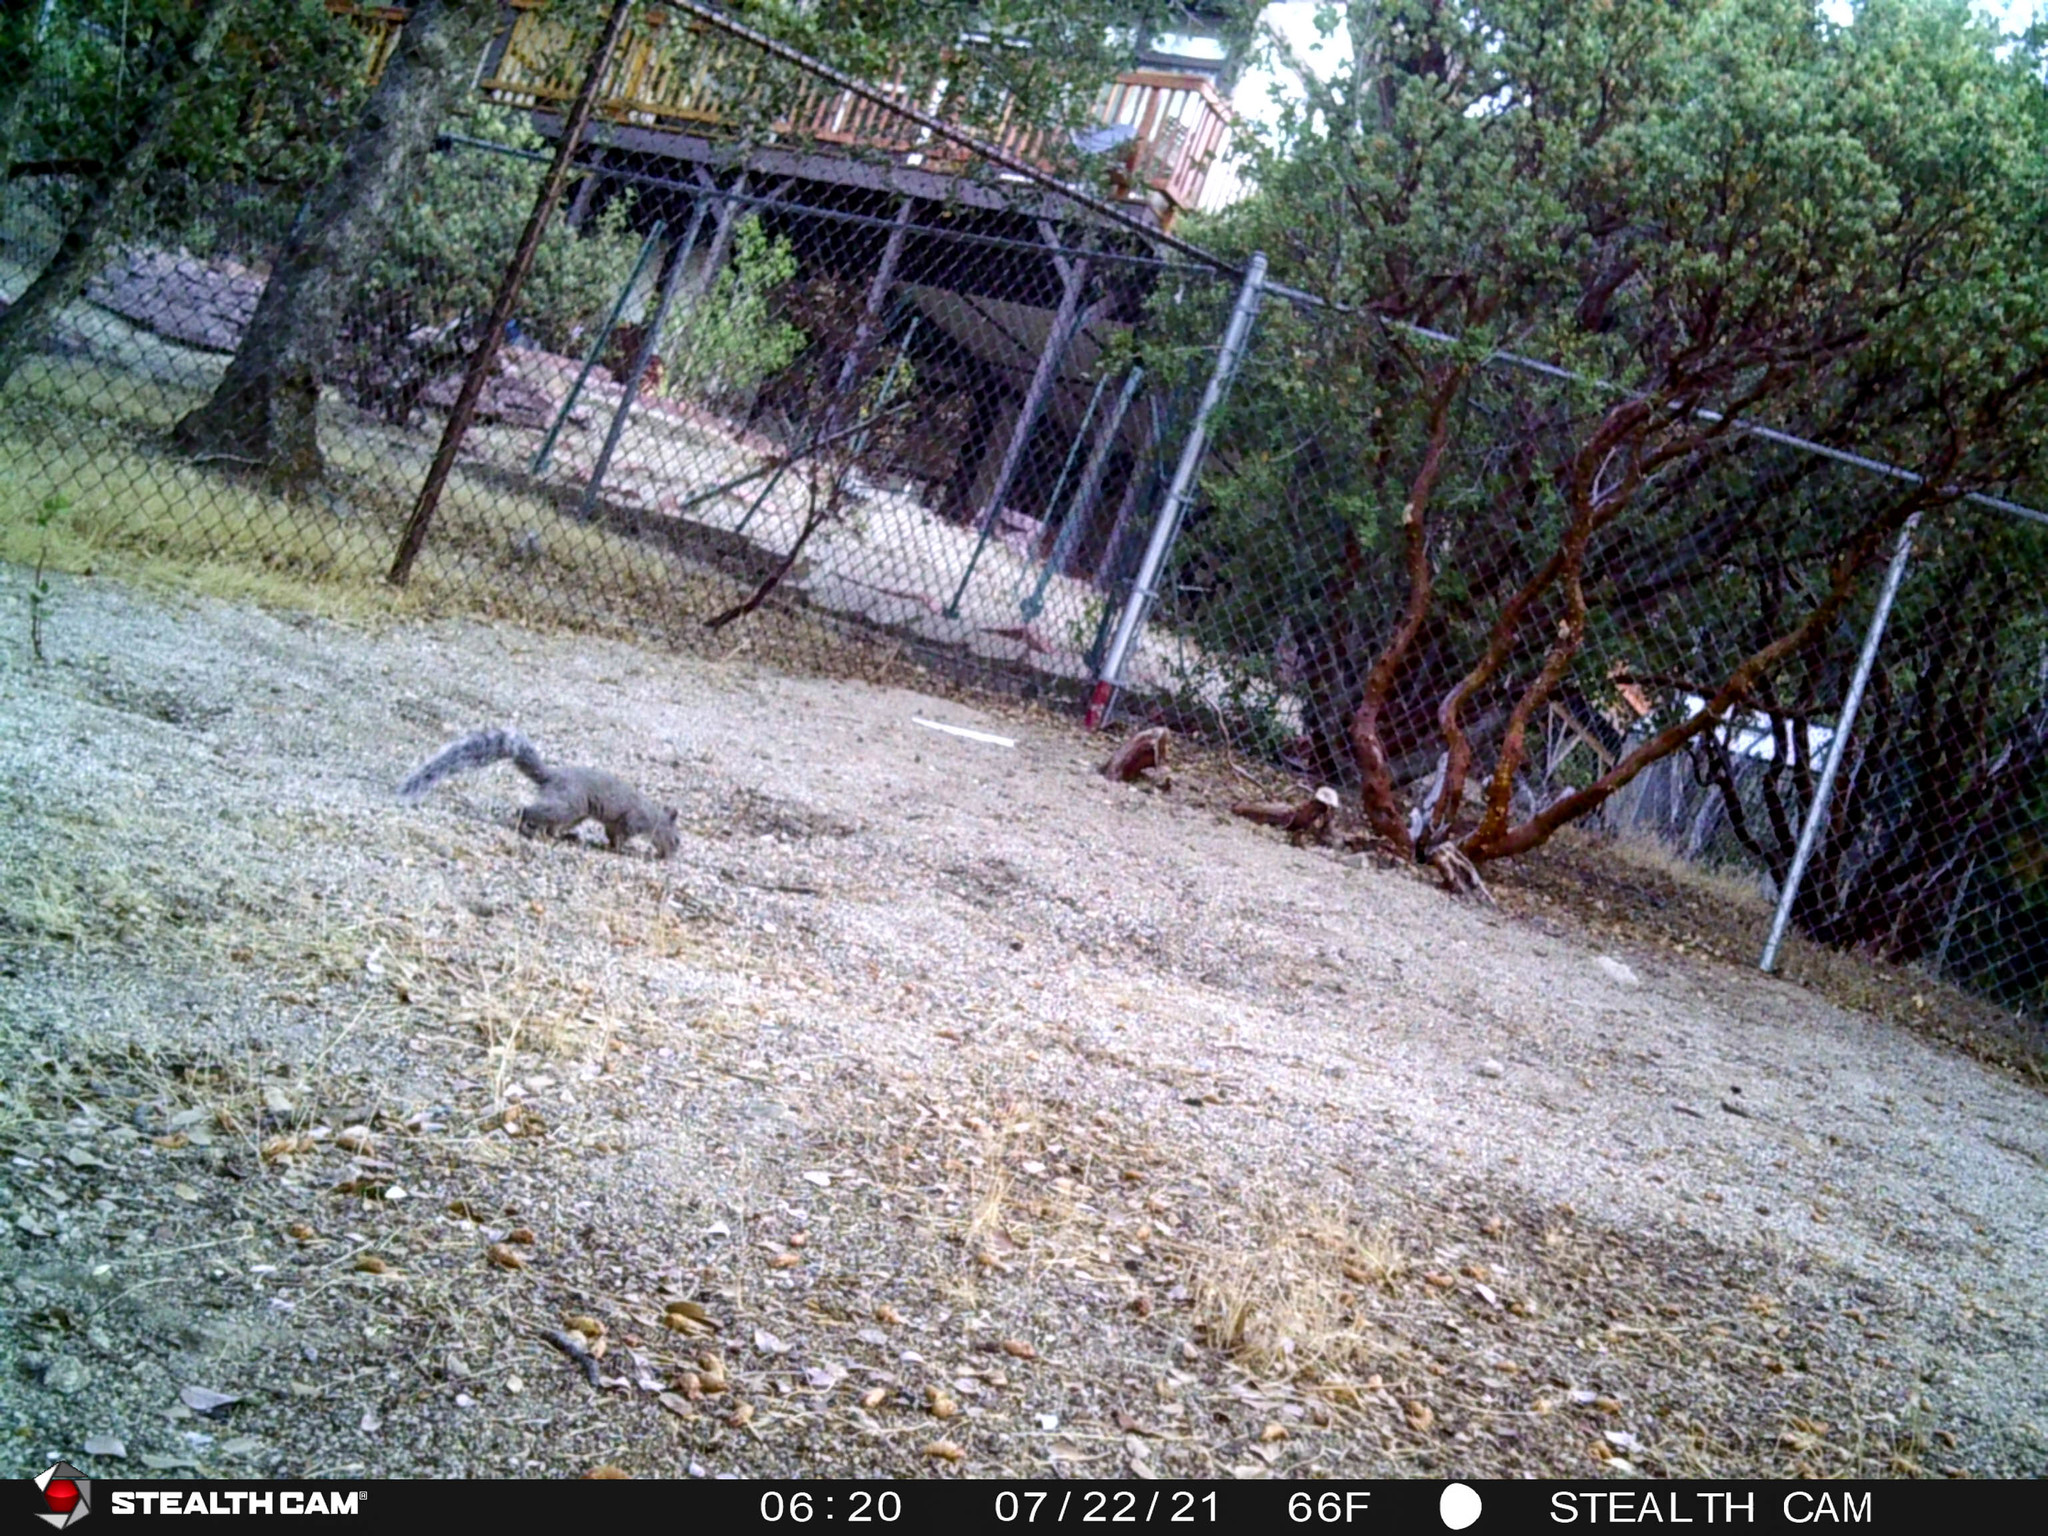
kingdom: Animalia
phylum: Chordata
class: Mammalia
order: Rodentia
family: Sciuridae
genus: Sciurus
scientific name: Sciurus griseus
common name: Western gray squirrel
